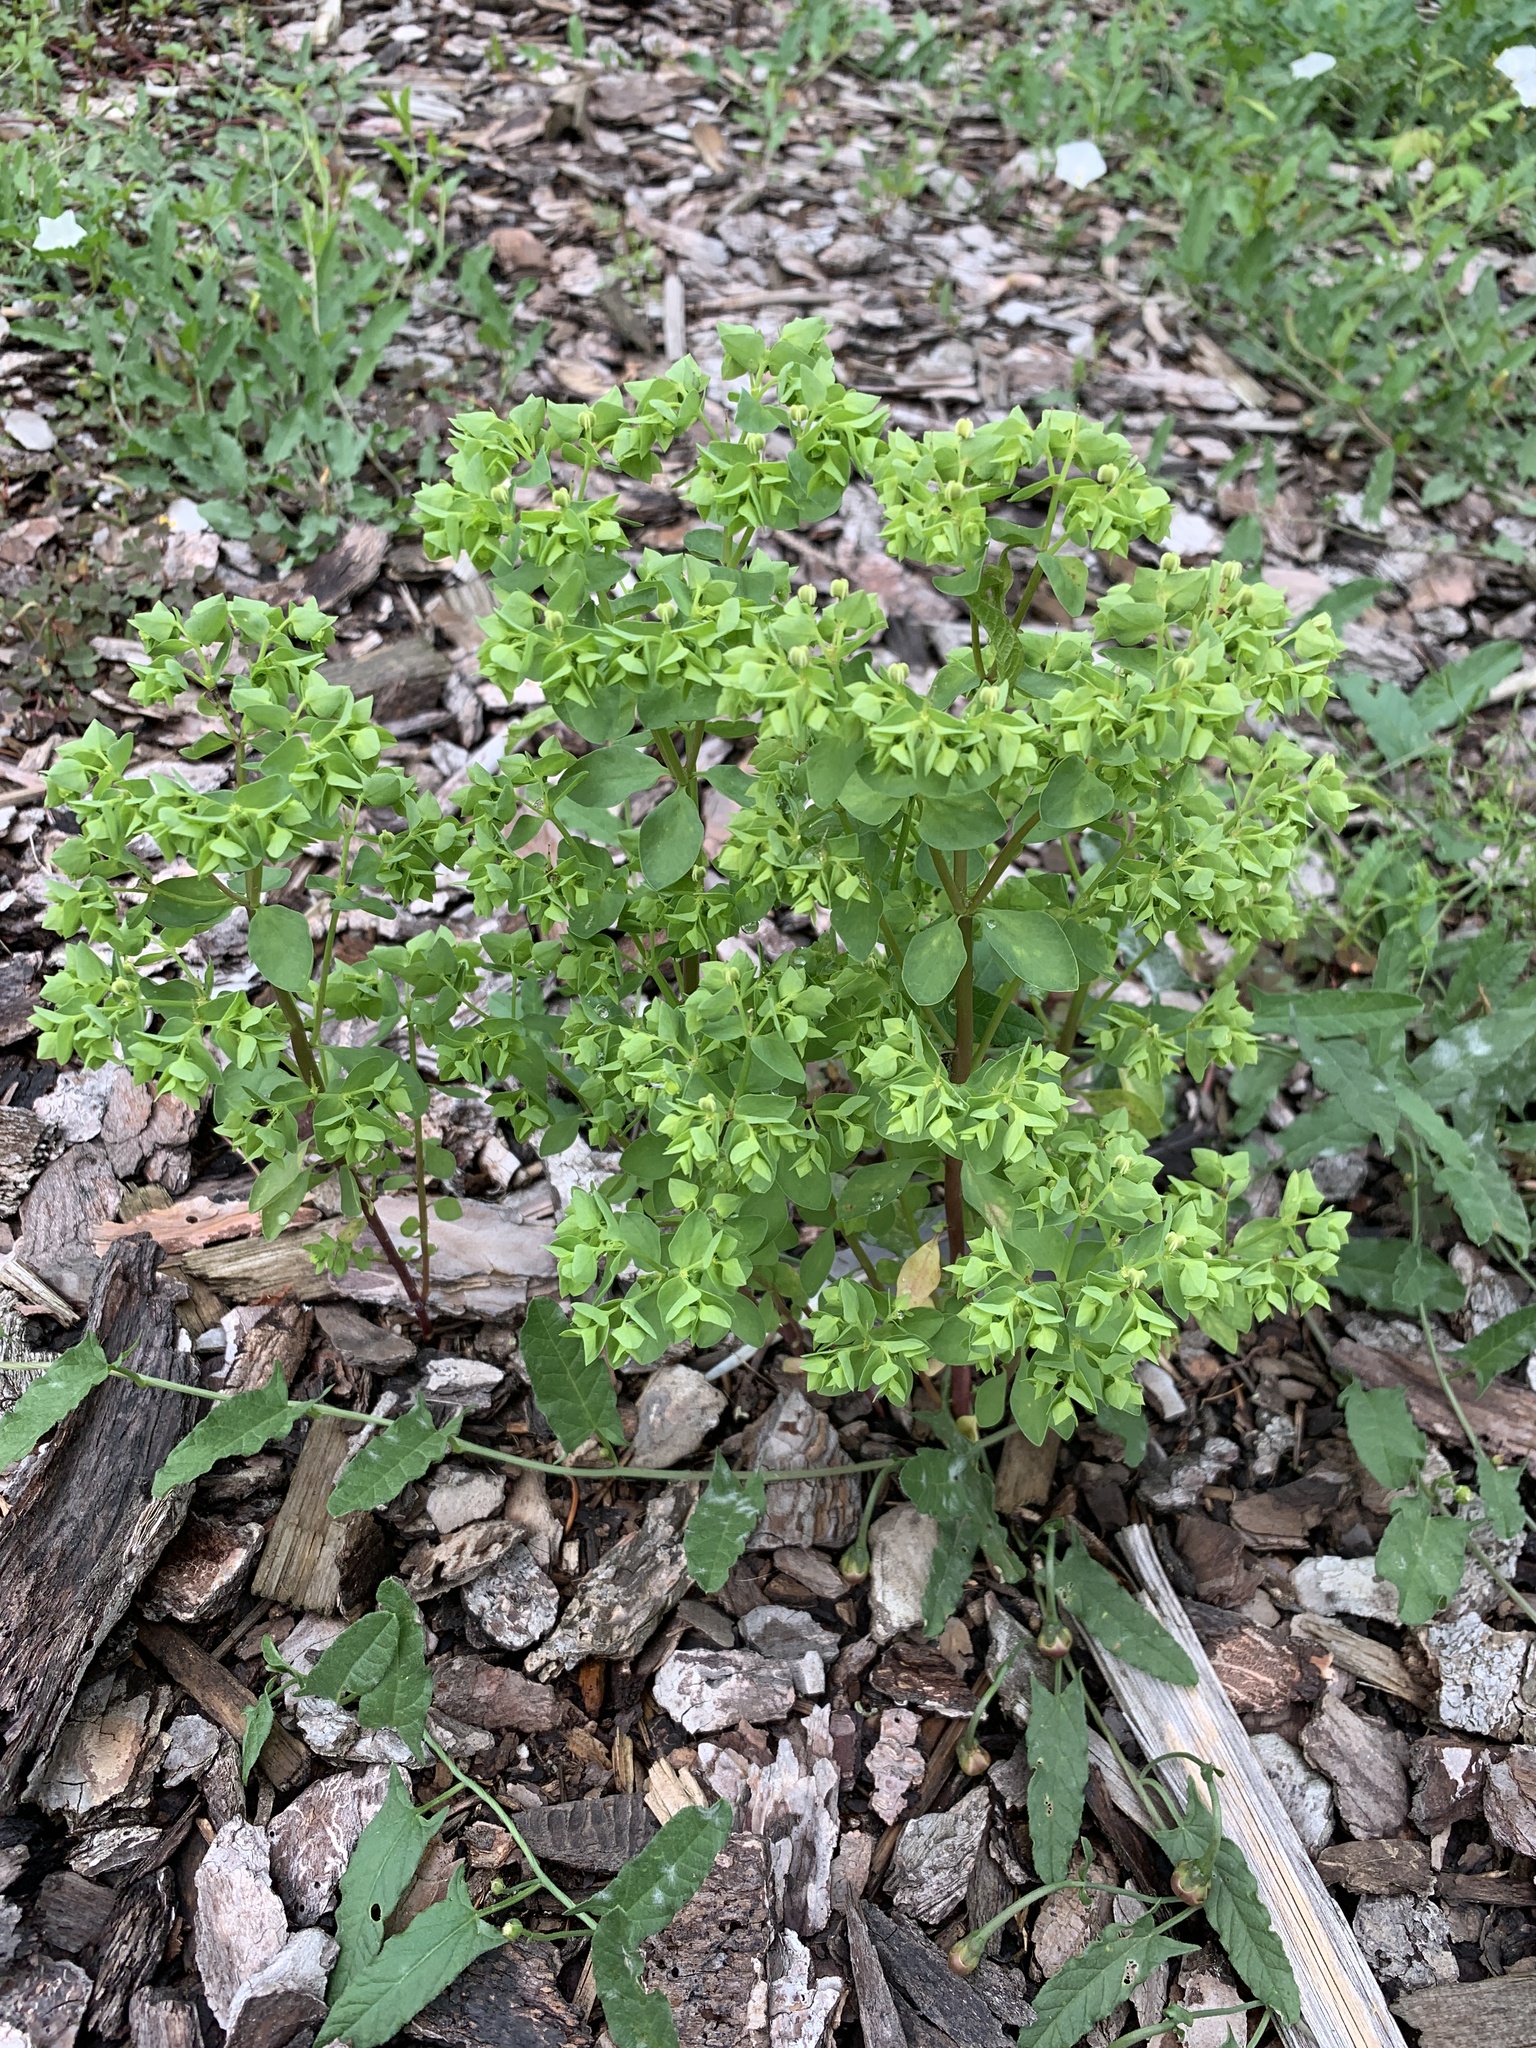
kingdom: Plantae
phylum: Tracheophyta
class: Magnoliopsida
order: Malpighiales
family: Euphorbiaceae
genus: Euphorbia
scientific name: Euphorbia peplus
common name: Petty spurge
